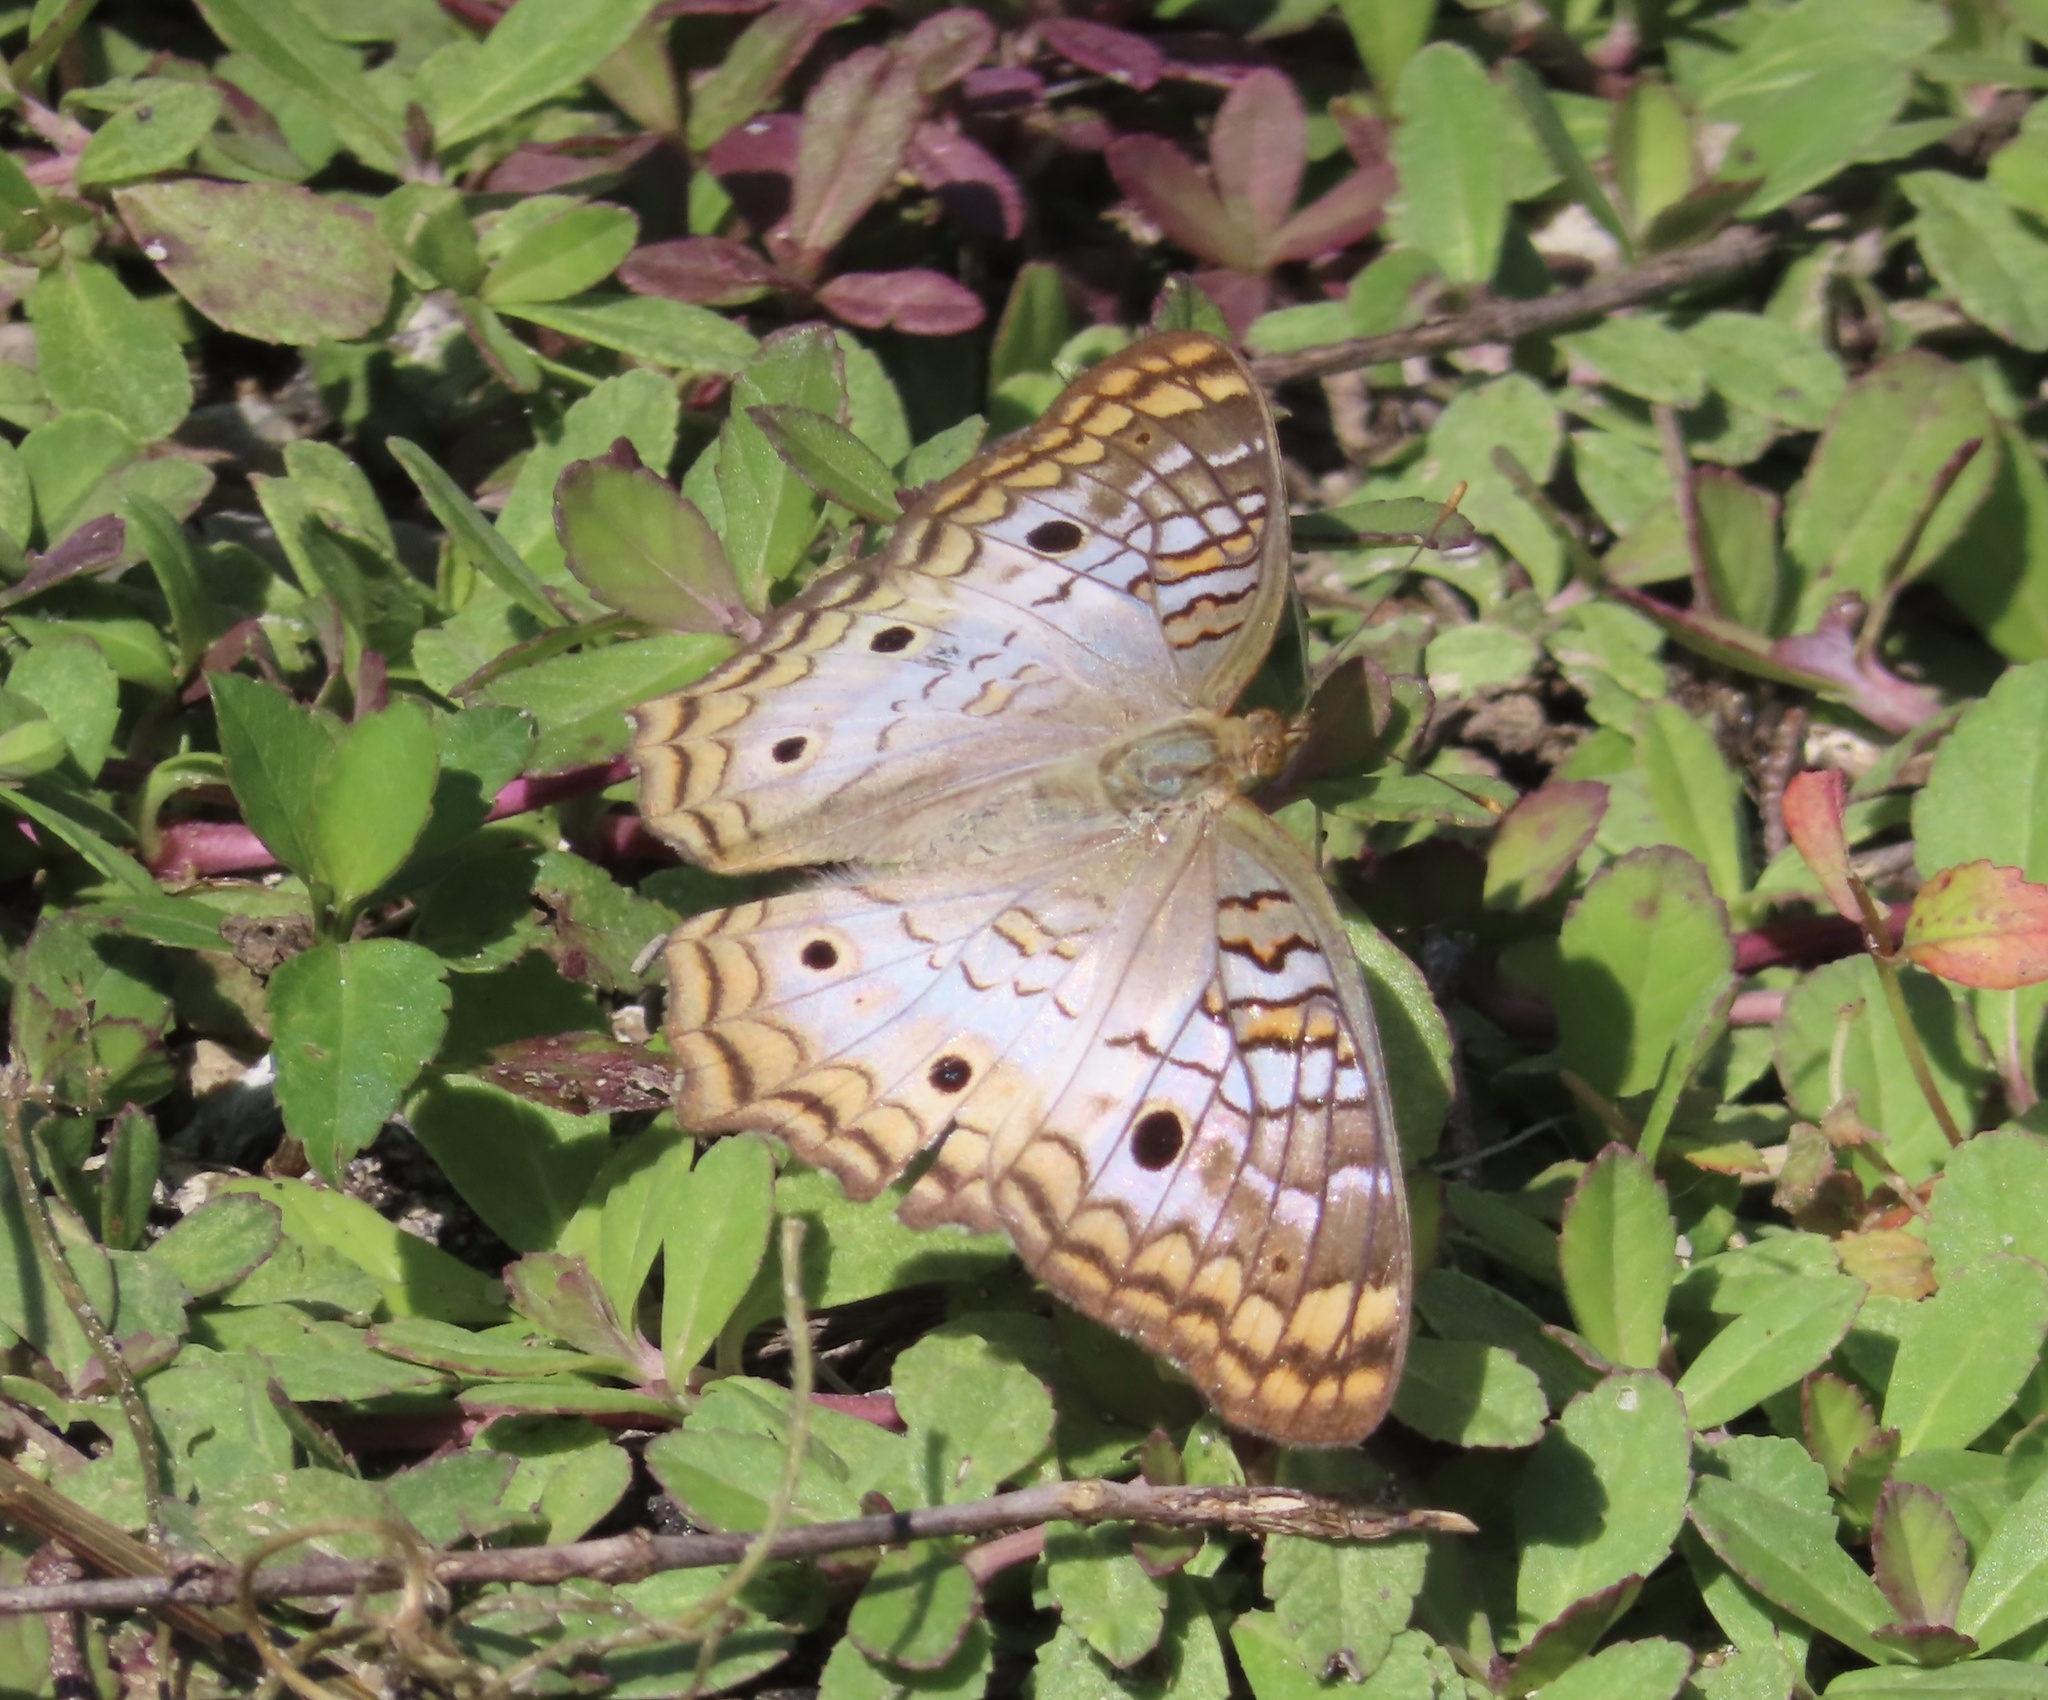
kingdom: Animalia
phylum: Arthropoda
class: Insecta
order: Lepidoptera
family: Nymphalidae
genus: Anartia
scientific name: Anartia jatrophae
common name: White peacock
